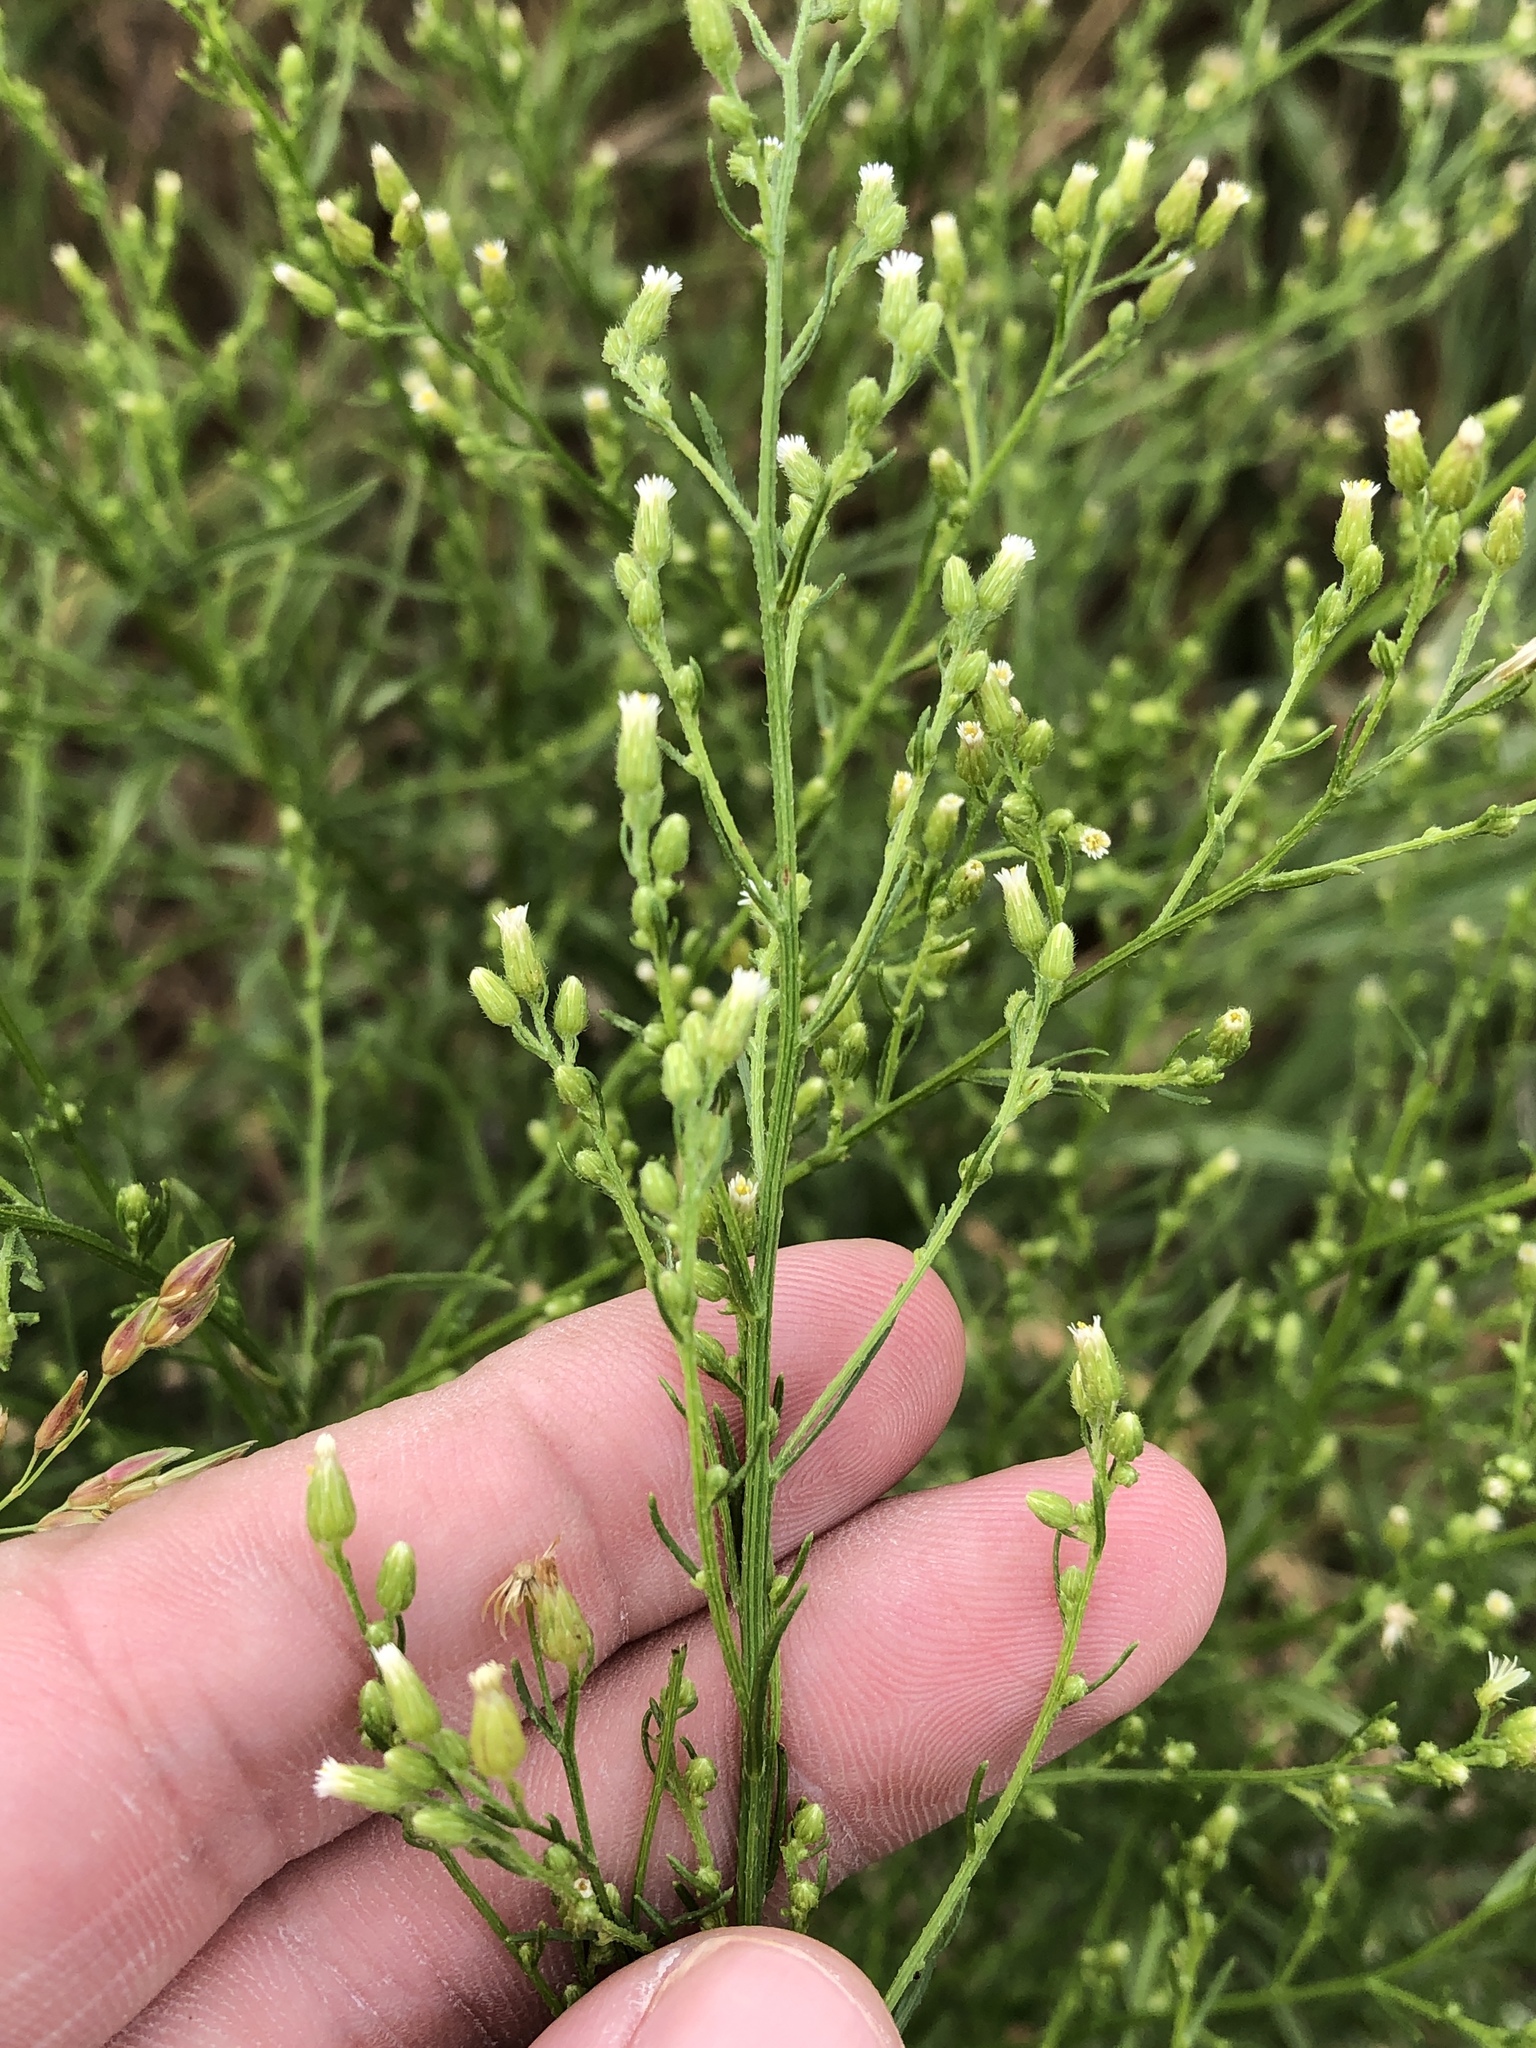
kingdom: Plantae
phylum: Tracheophyta
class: Magnoliopsida
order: Asterales
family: Asteraceae
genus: Erigeron
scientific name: Erigeron canadensis
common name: Canadian fleabane
